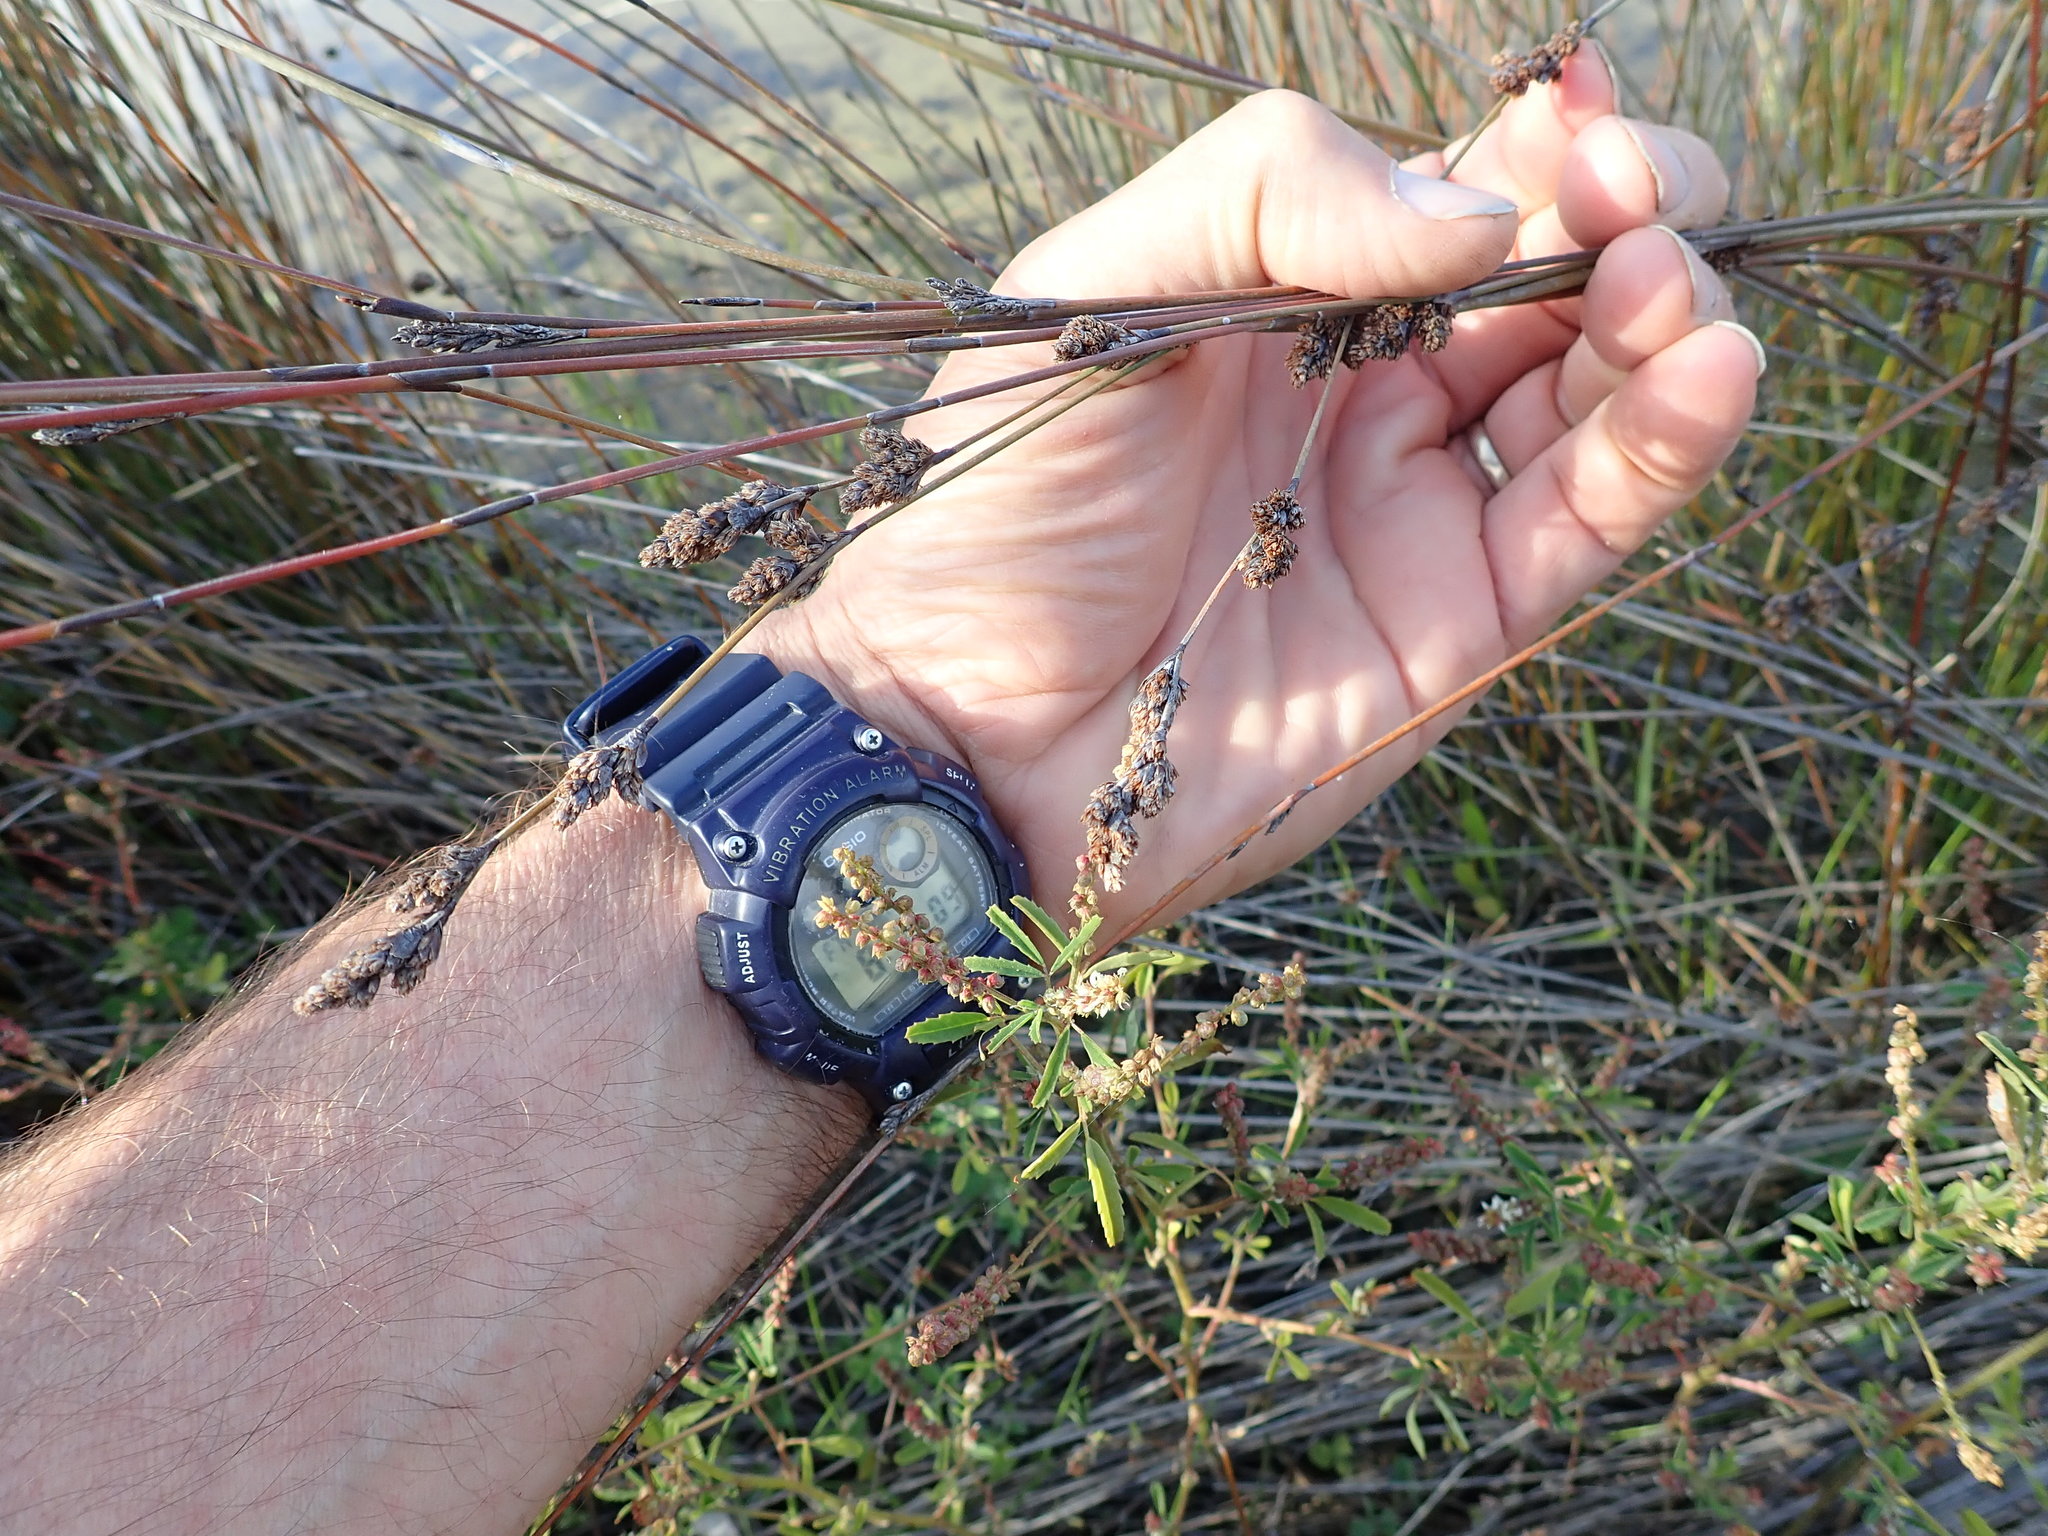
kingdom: Plantae
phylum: Tracheophyta
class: Liliopsida
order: Poales
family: Restionaceae
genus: Apodasmia
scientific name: Apodasmia similis
